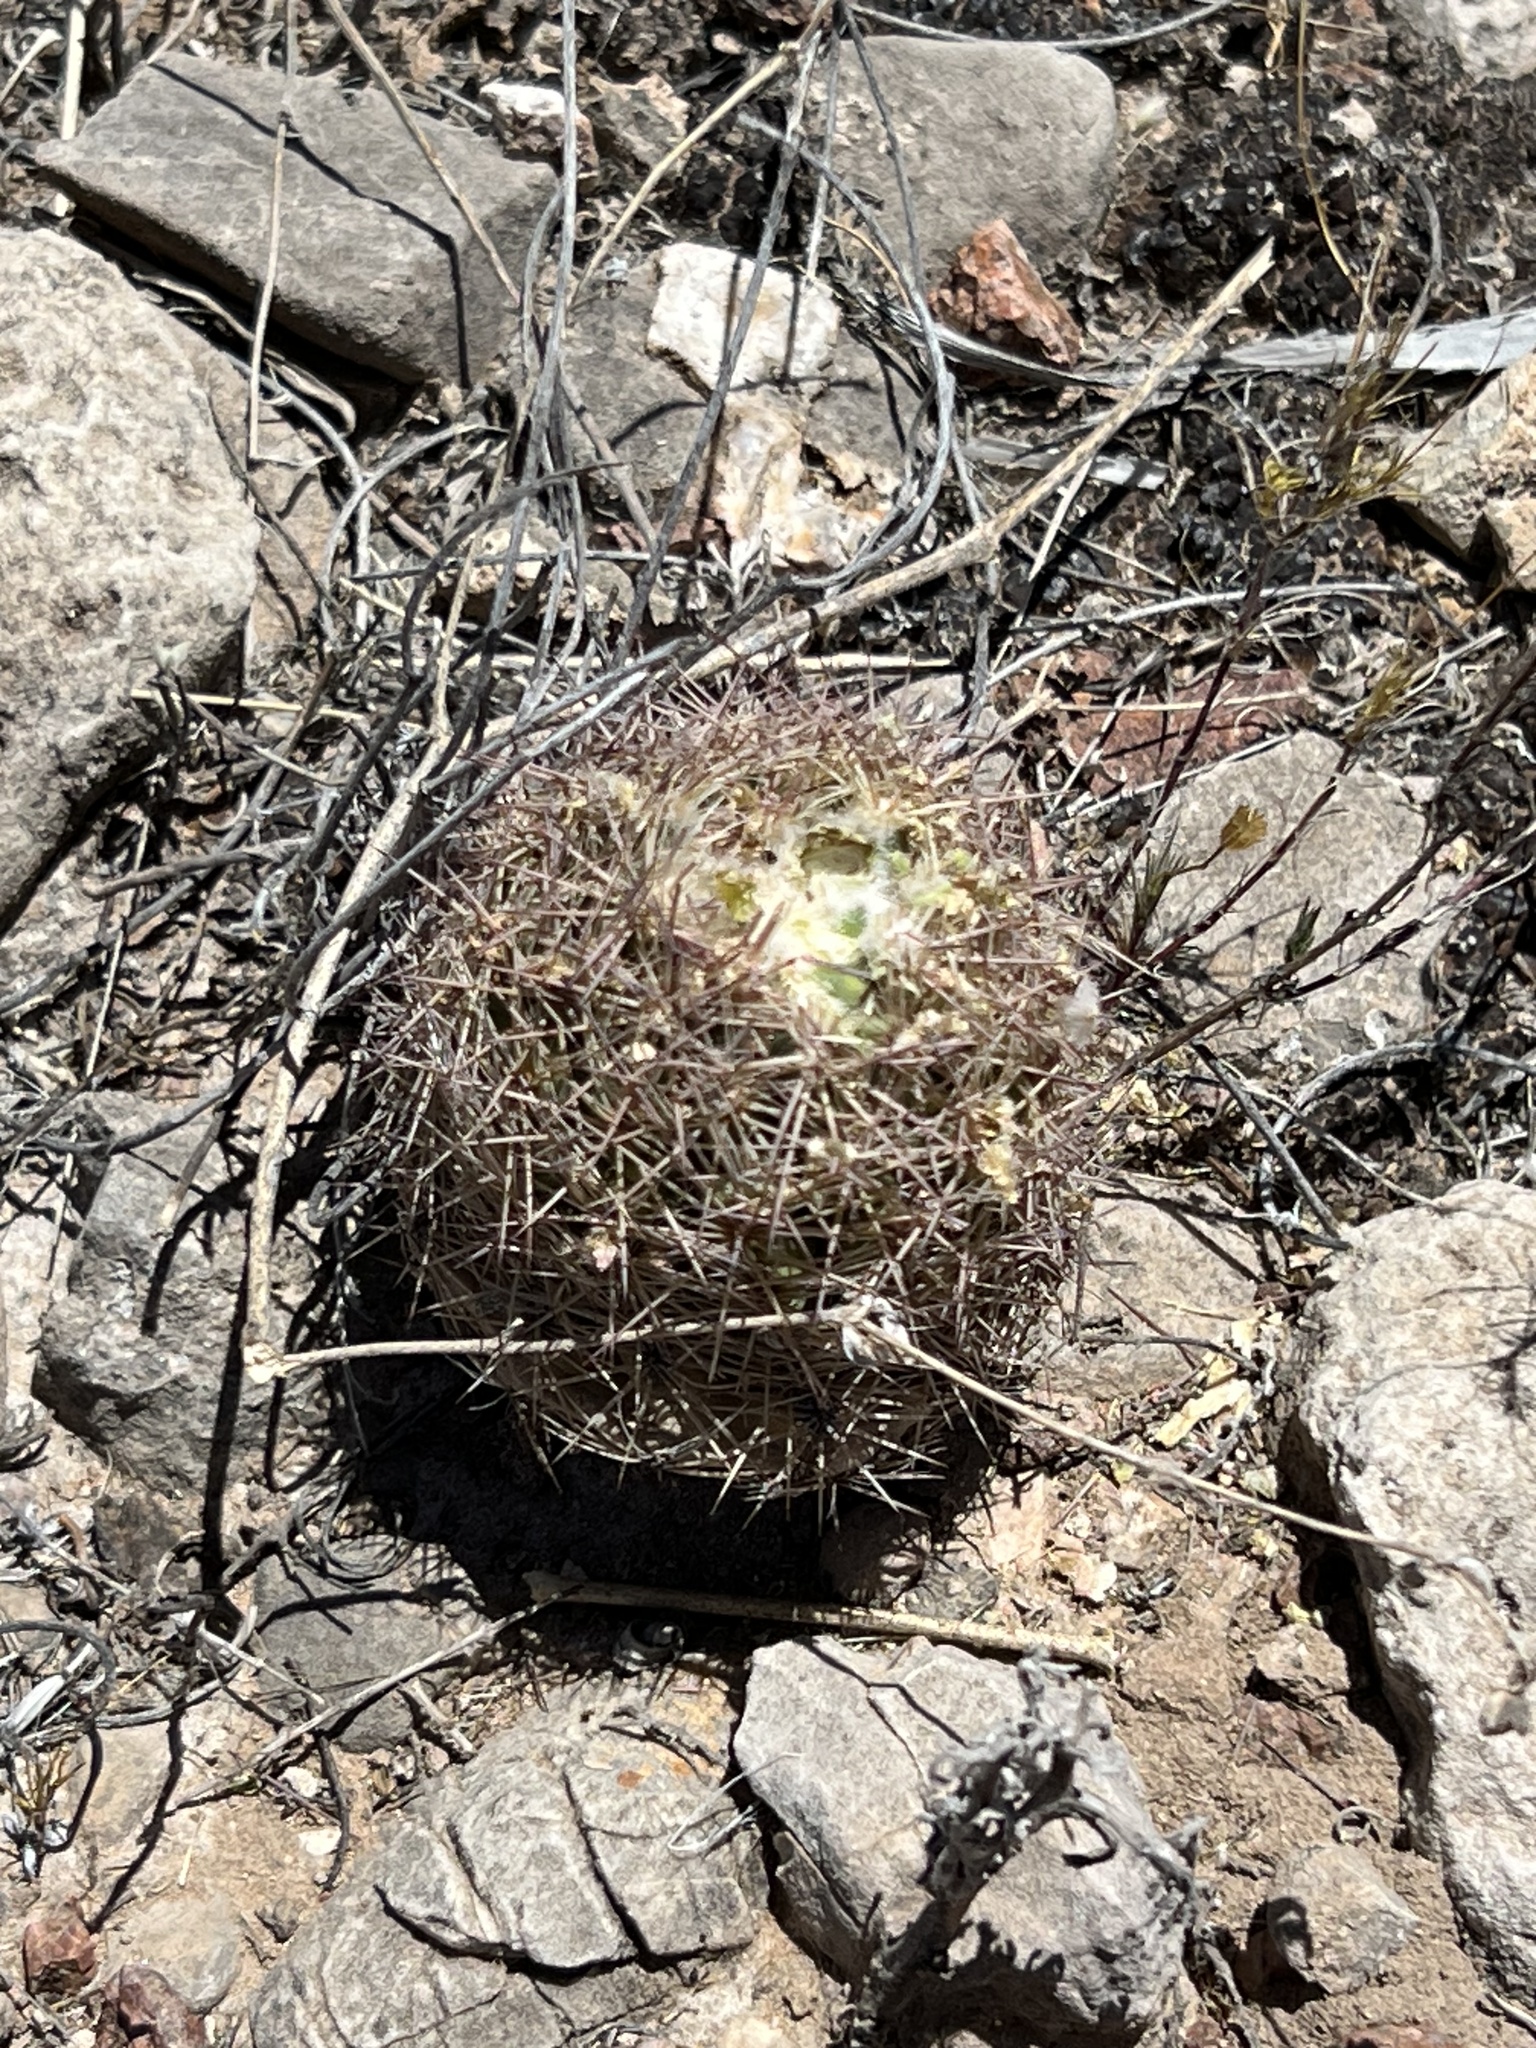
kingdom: Plantae
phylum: Tracheophyta
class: Magnoliopsida
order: Caryophyllales
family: Cactaceae
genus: Sclerocactus
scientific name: Sclerocactus intertextus
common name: White fish-hook cactus
